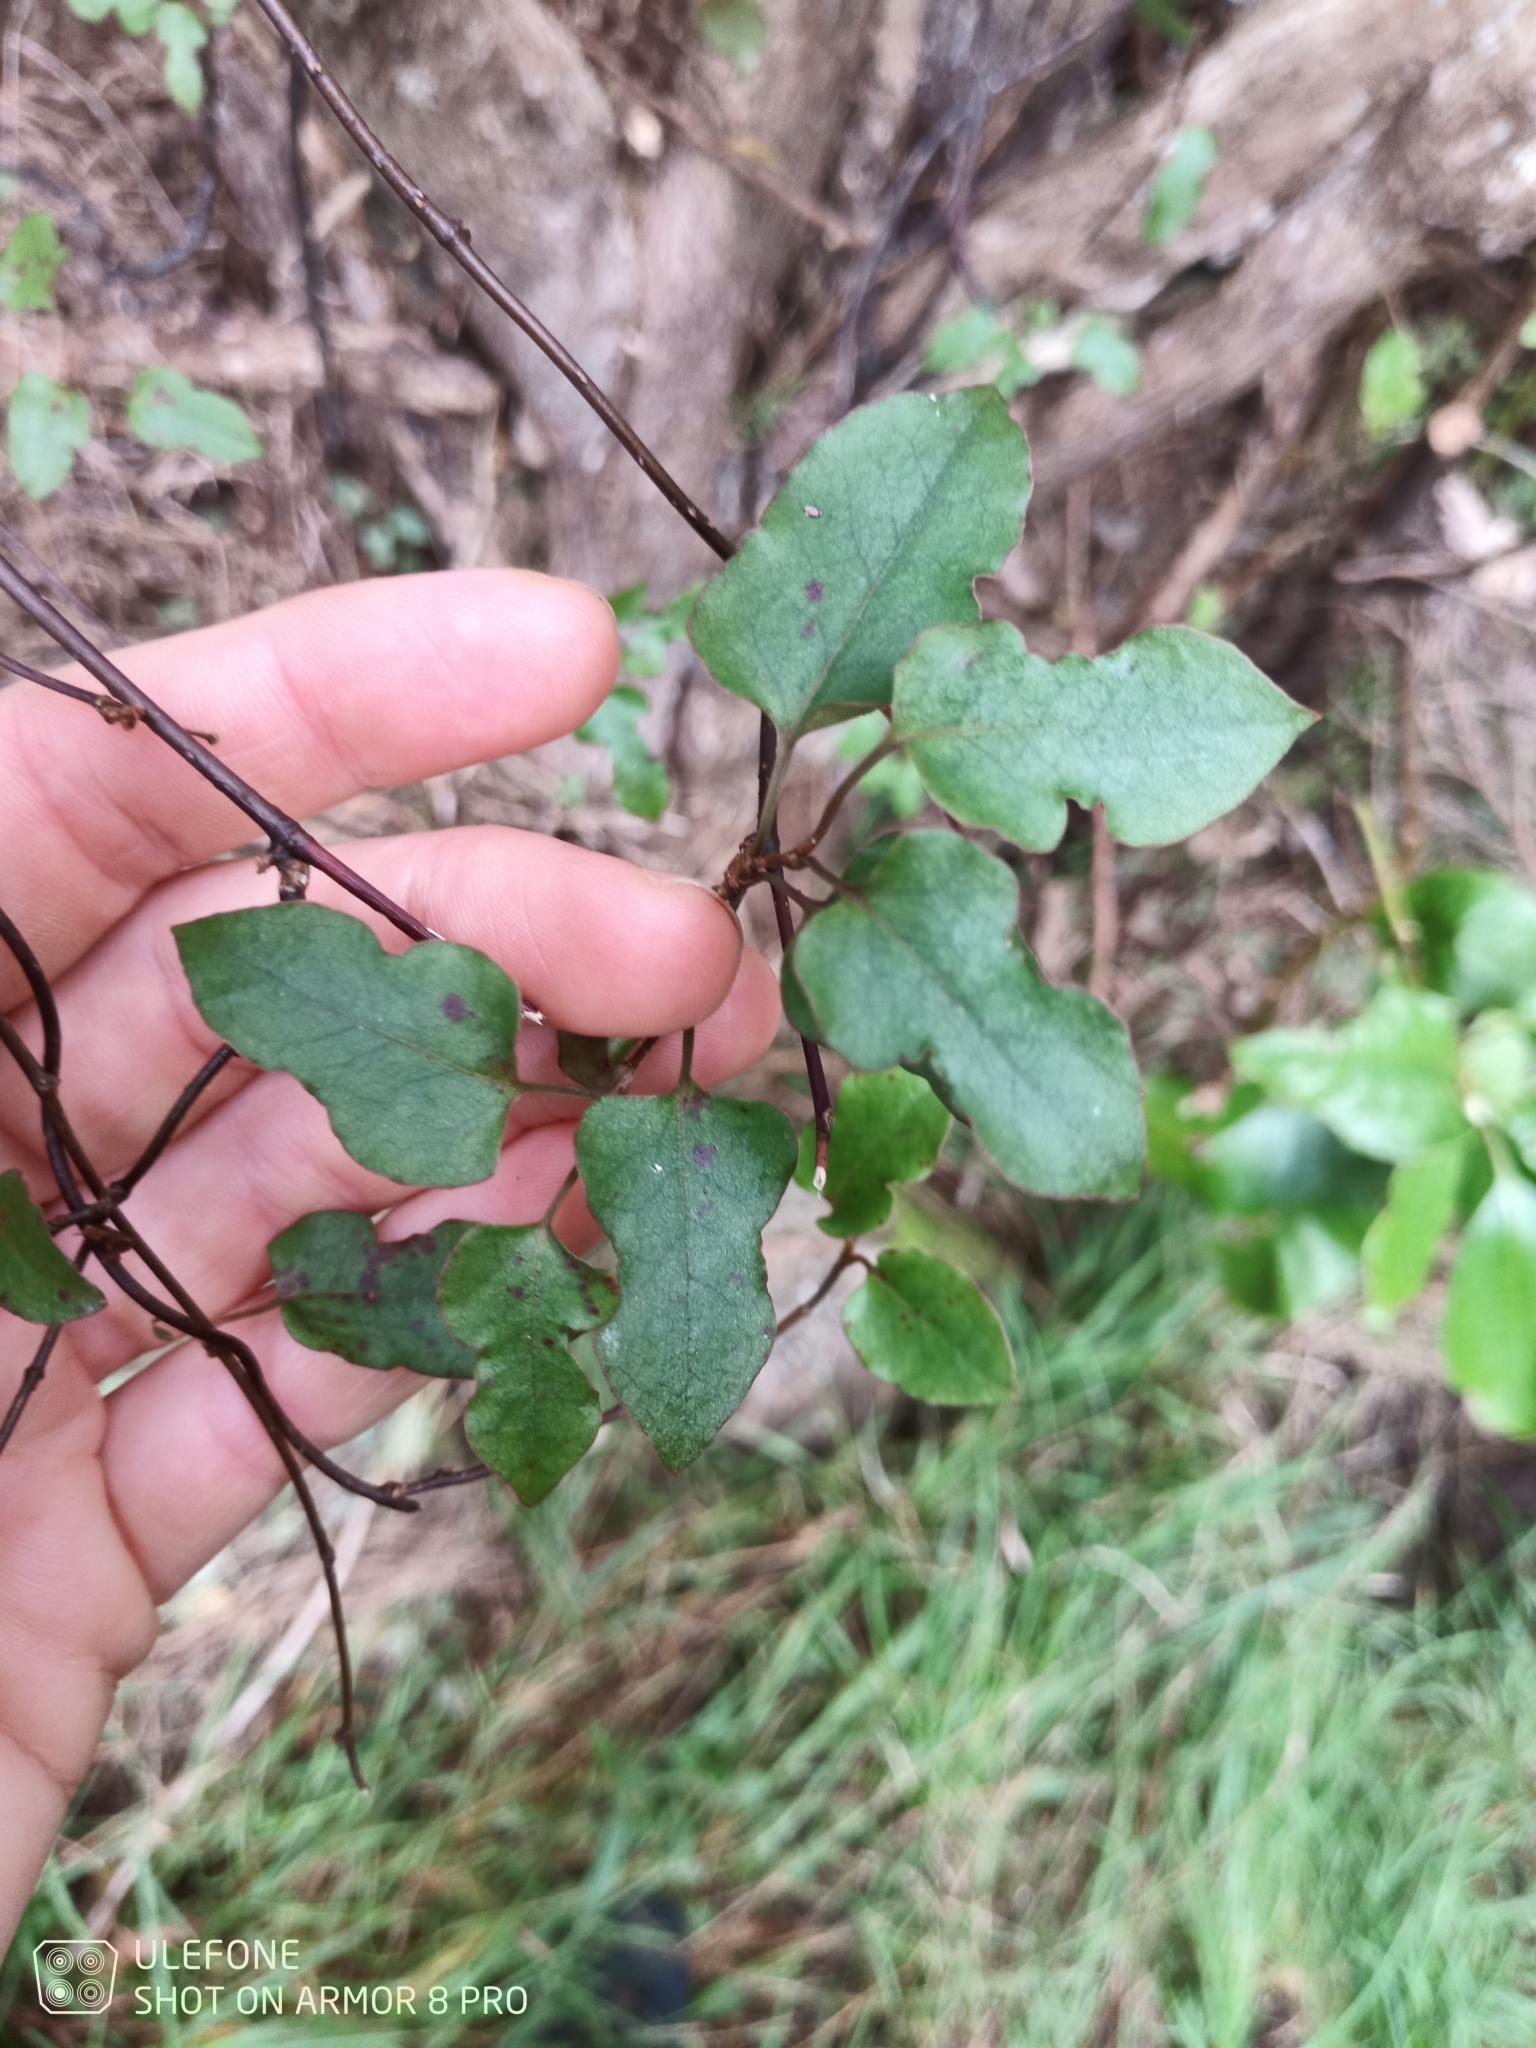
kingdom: Plantae
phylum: Tracheophyta
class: Magnoliopsida
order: Caryophyllales
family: Polygonaceae
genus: Muehlenbeckia
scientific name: Muehlenbeckia australis
